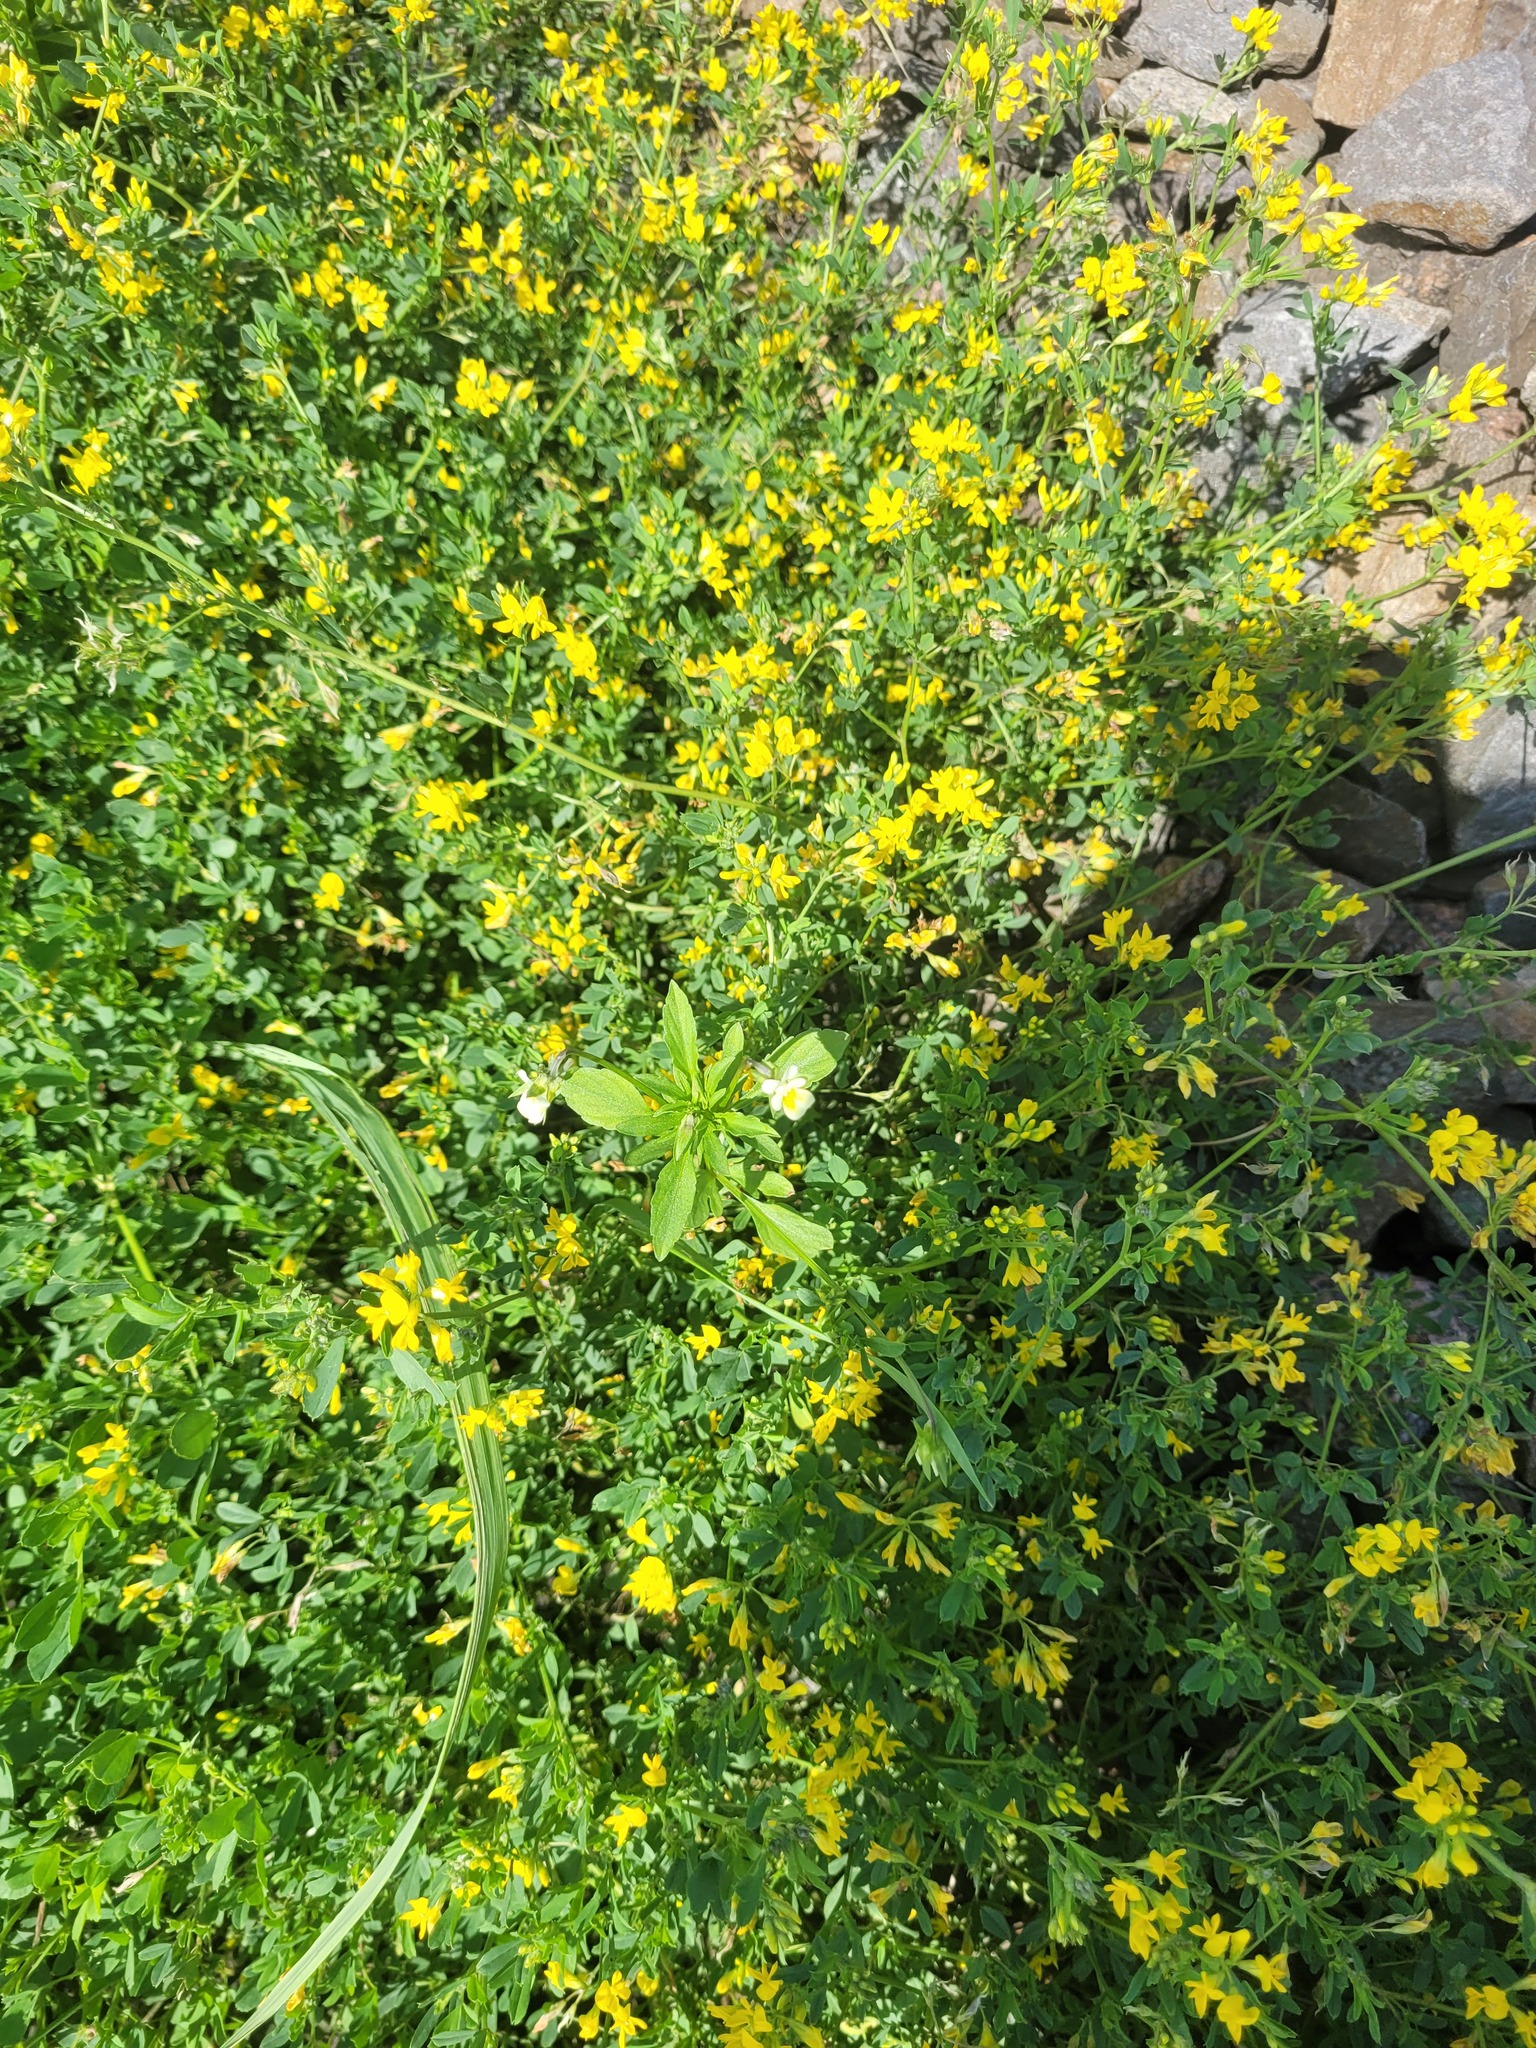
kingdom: Plantae
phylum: Tracheophyta
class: Magnoliopsida
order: Malpighiales
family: Violaceae
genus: Viola
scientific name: Viola arvensis
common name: Field pansy
